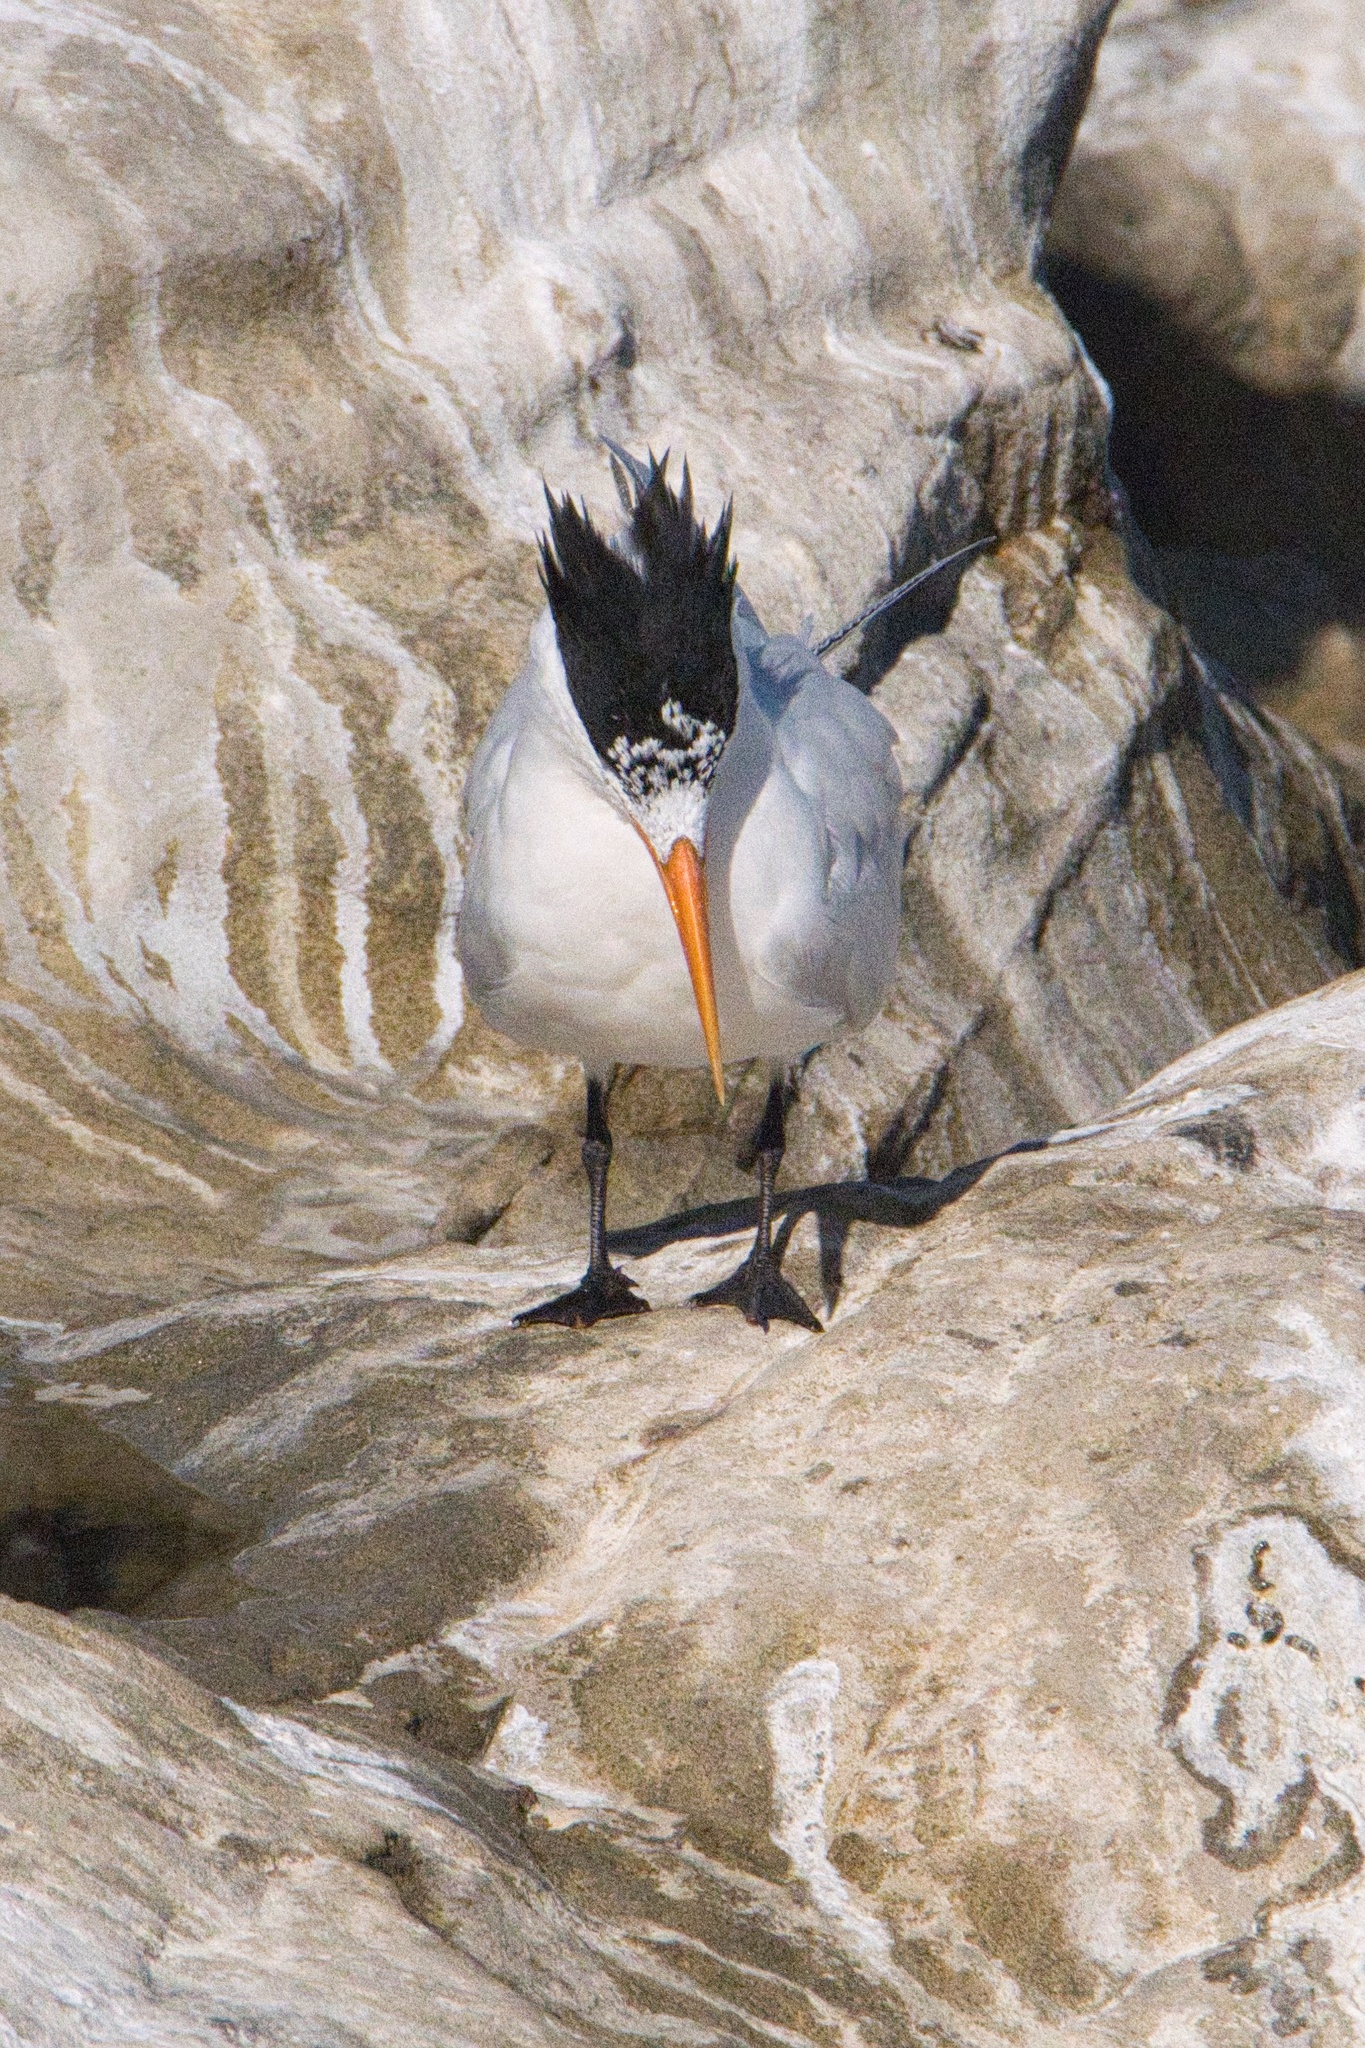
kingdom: Animalia
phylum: Chordata
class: Aves
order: Charadriiformes
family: Laridae
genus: Thalasseus
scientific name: Thalasseus elegans
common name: Elegant tern
